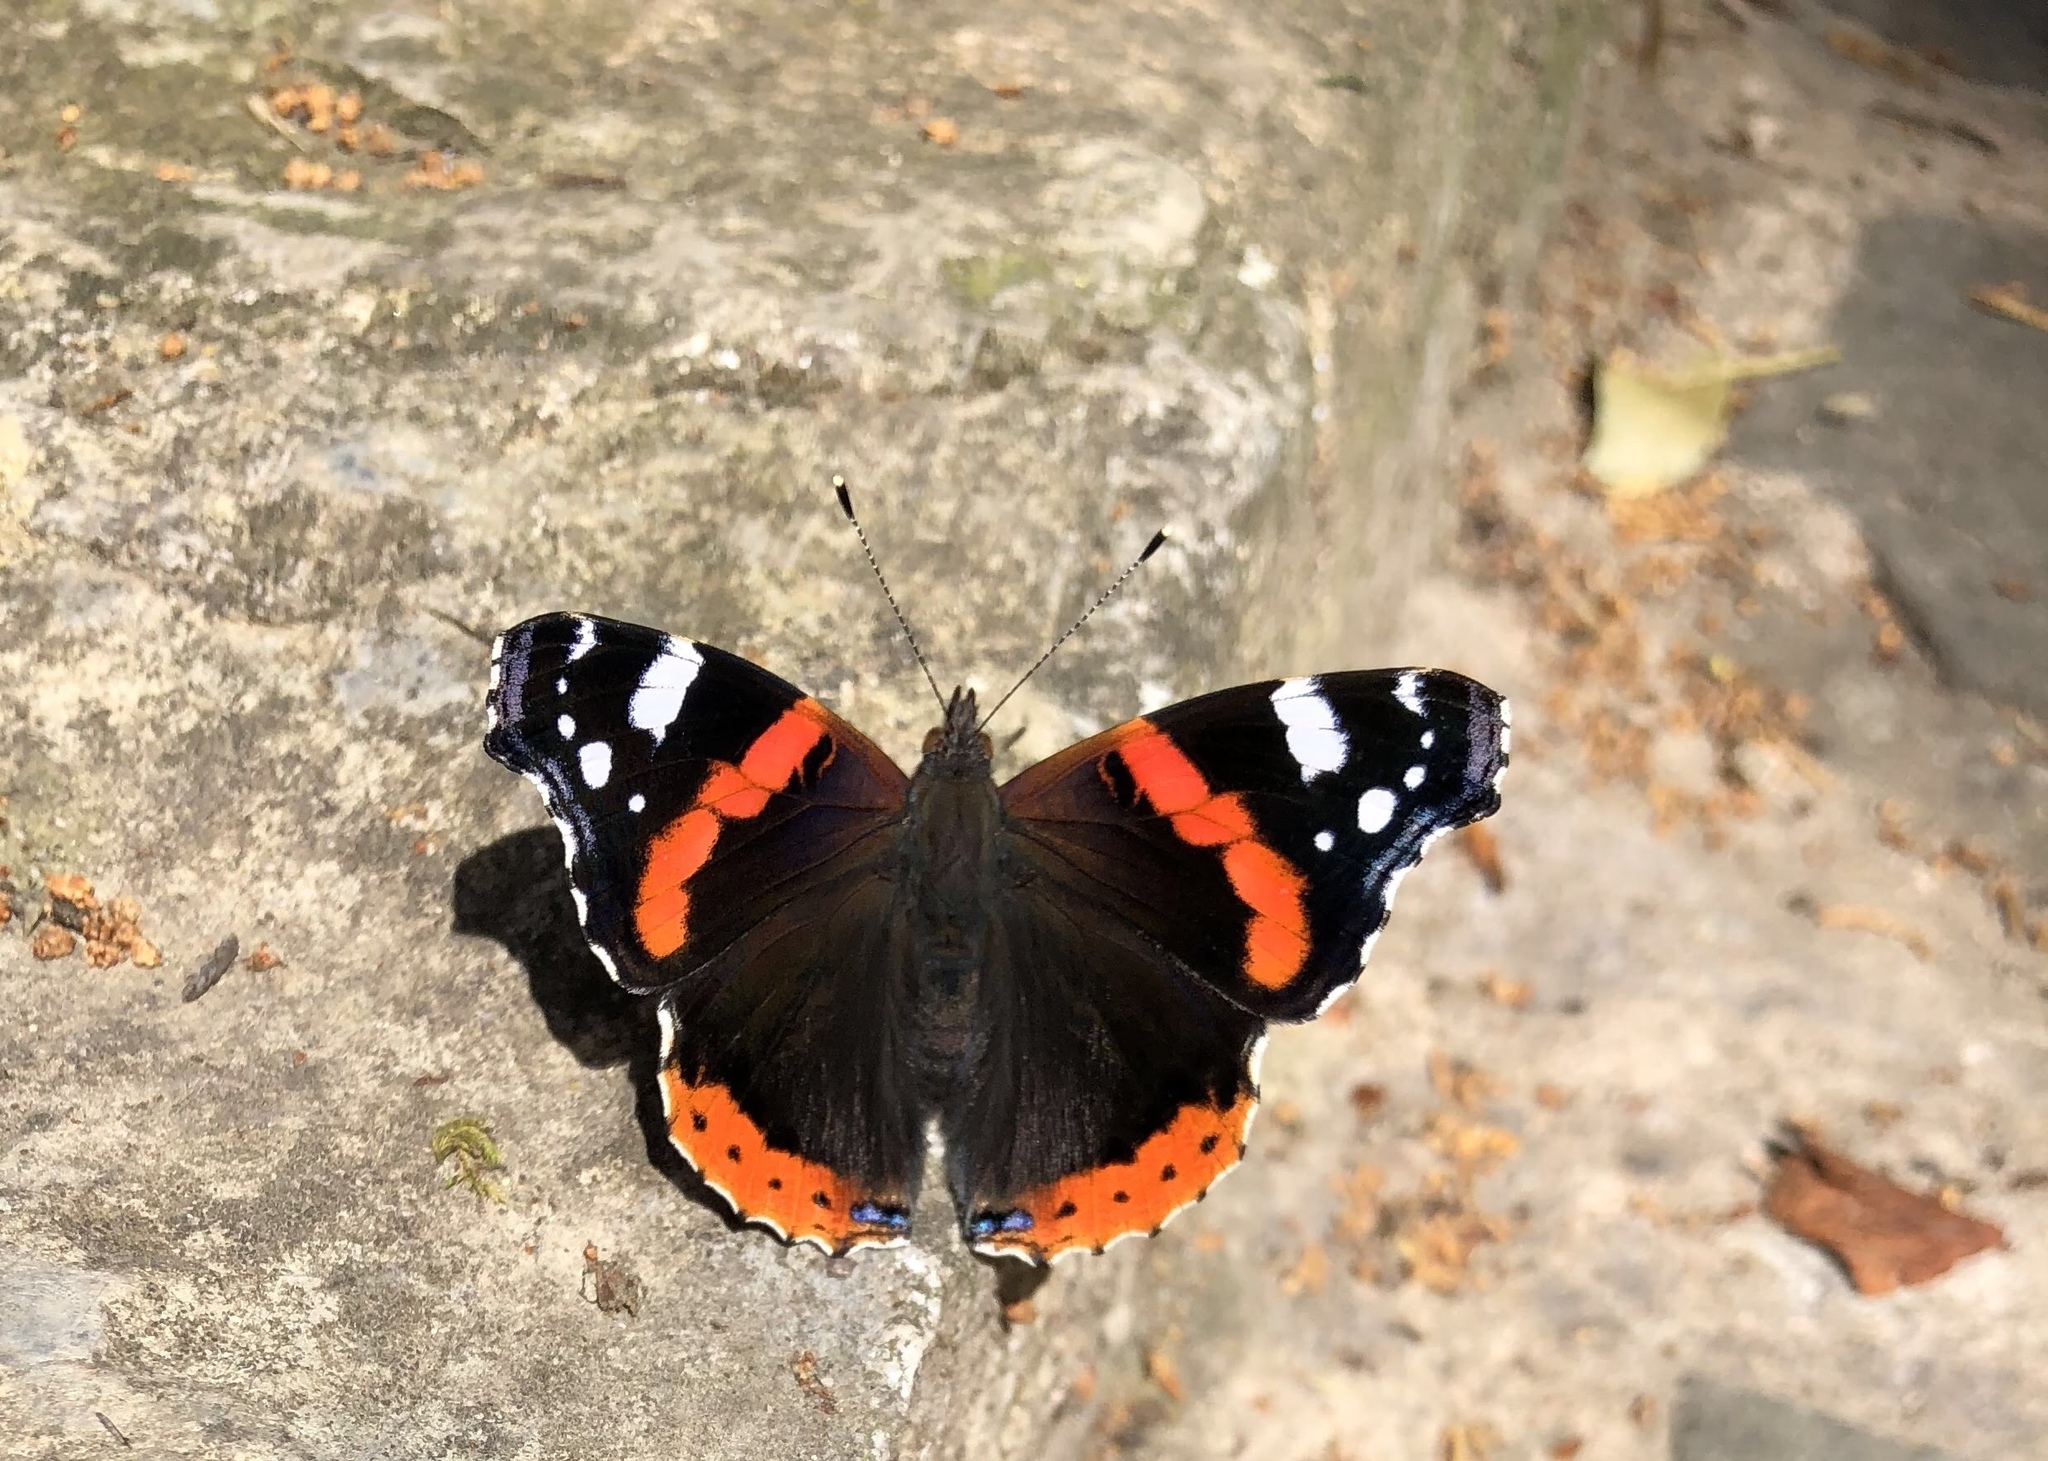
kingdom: Animalia
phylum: Arthropoda
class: Insecta
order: Lepidoptera
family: Nymphalidae
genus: Vanessa
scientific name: Vanessa atalanta
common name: Red admiral
